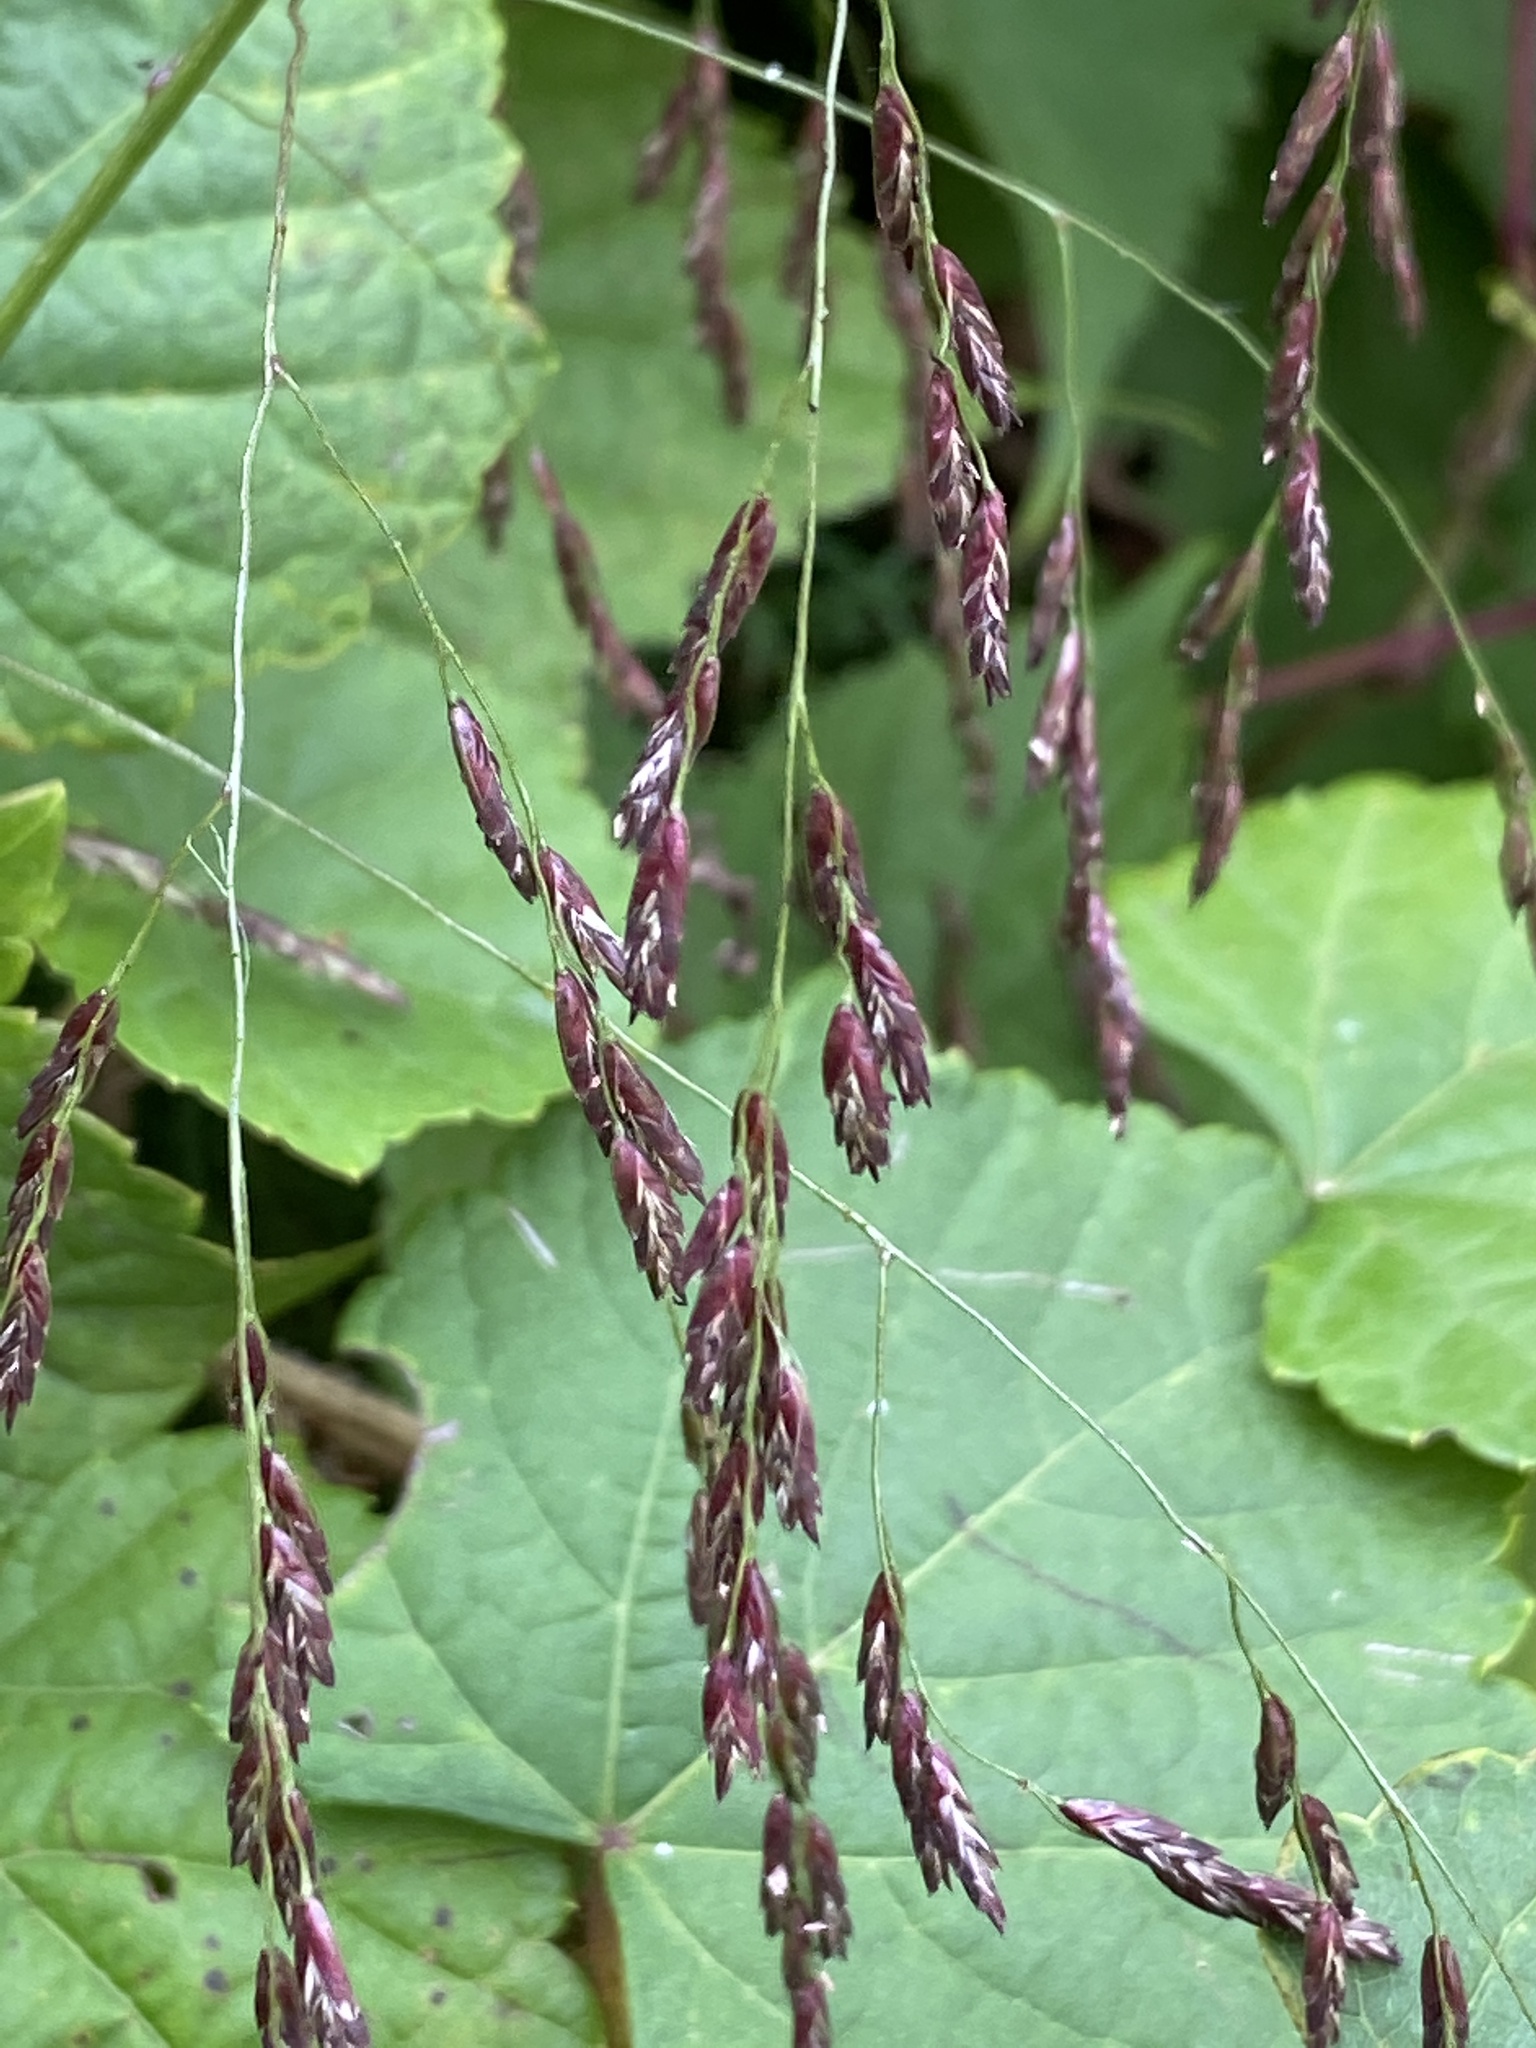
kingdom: Plantae
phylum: Tracheophyta
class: Liliopsida
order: Poales
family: Poaceae
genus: Tridens
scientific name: Tridens flavus
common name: Purpletop
